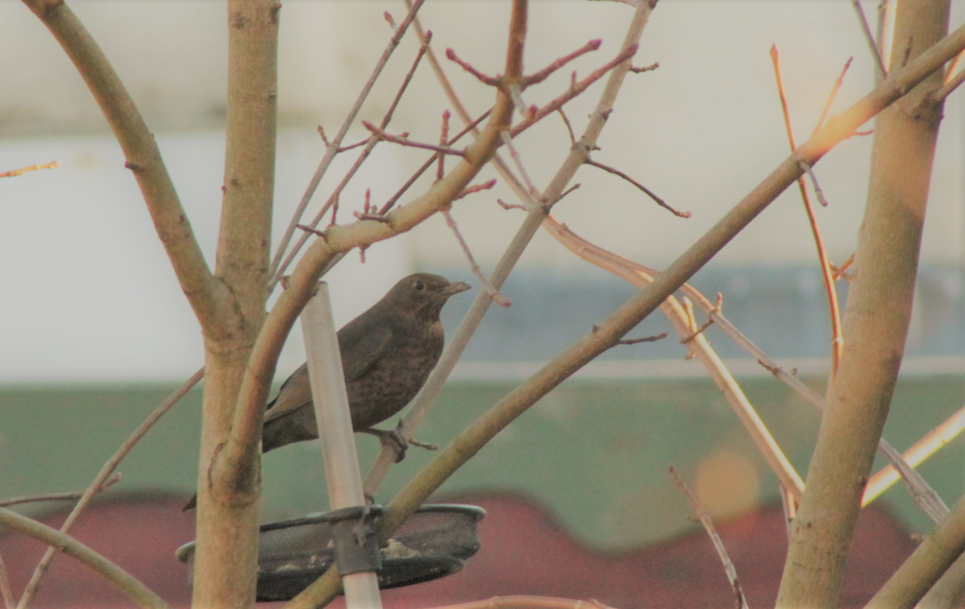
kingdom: Animalia
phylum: Chordata
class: Aves
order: Passeriformes
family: Turdidae
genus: Turdus
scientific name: Turdus merula
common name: Common blackbird
